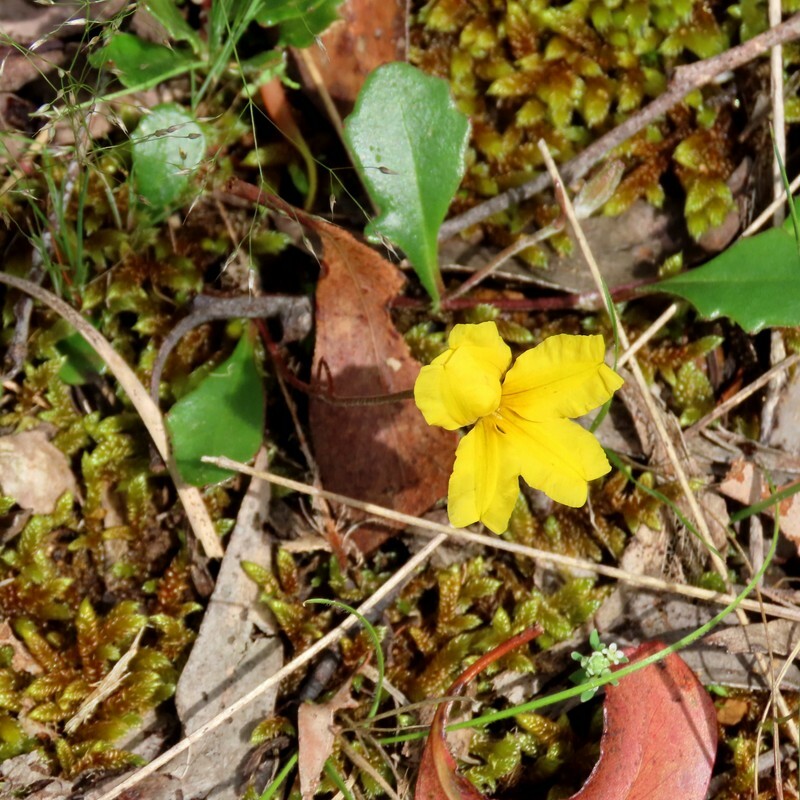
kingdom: Plantae
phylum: Tracheophyta
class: Magnoliopsida
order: Asterales
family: Goodeniaceae
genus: Goodenia
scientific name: Goodenia lanata
